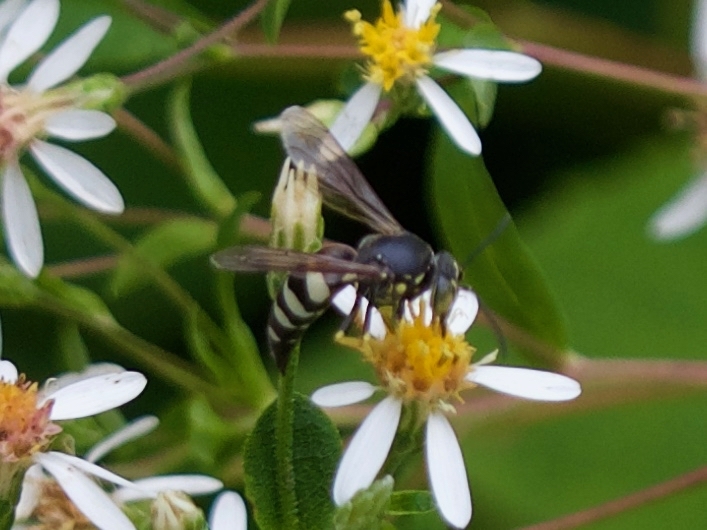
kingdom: Animalia
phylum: Arthropoda
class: Insecta
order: Hymenoptera
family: Crabronidae
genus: Bicyrtes
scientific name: Bicyrtes quadrifasciatus
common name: Four-banded stink bug hunter wasp
